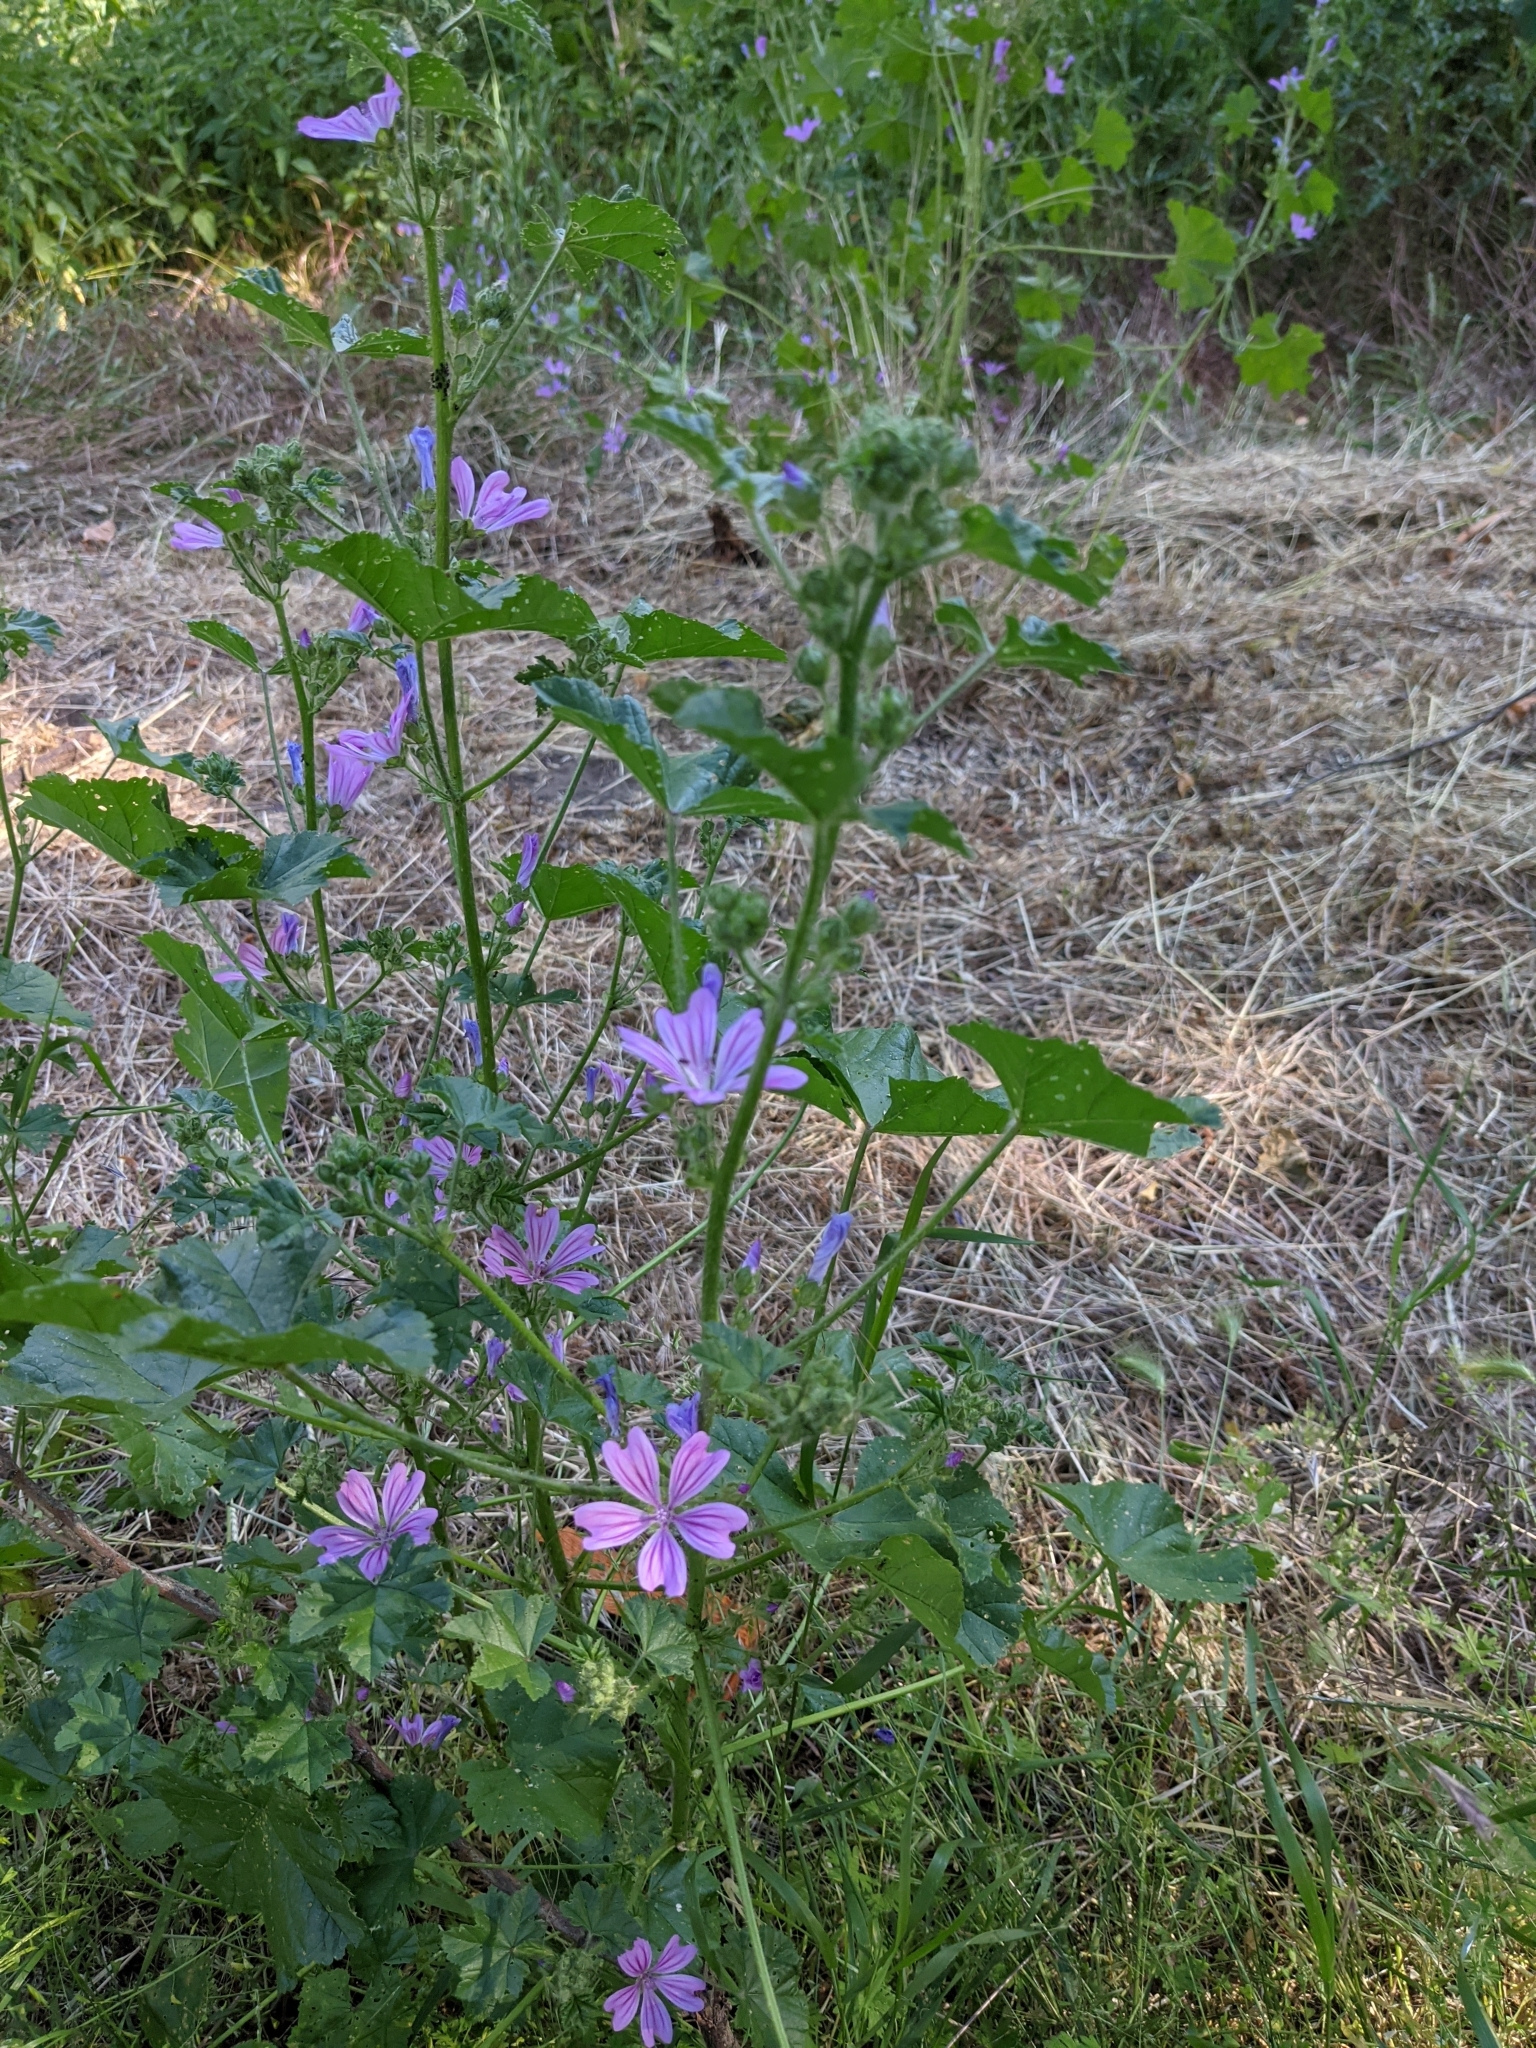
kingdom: Plantae
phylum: Tracheophyta
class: Magnoliopsida
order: Malvales
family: Malvaceae
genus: Malva
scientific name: Malva sylvestris
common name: Common mallow
